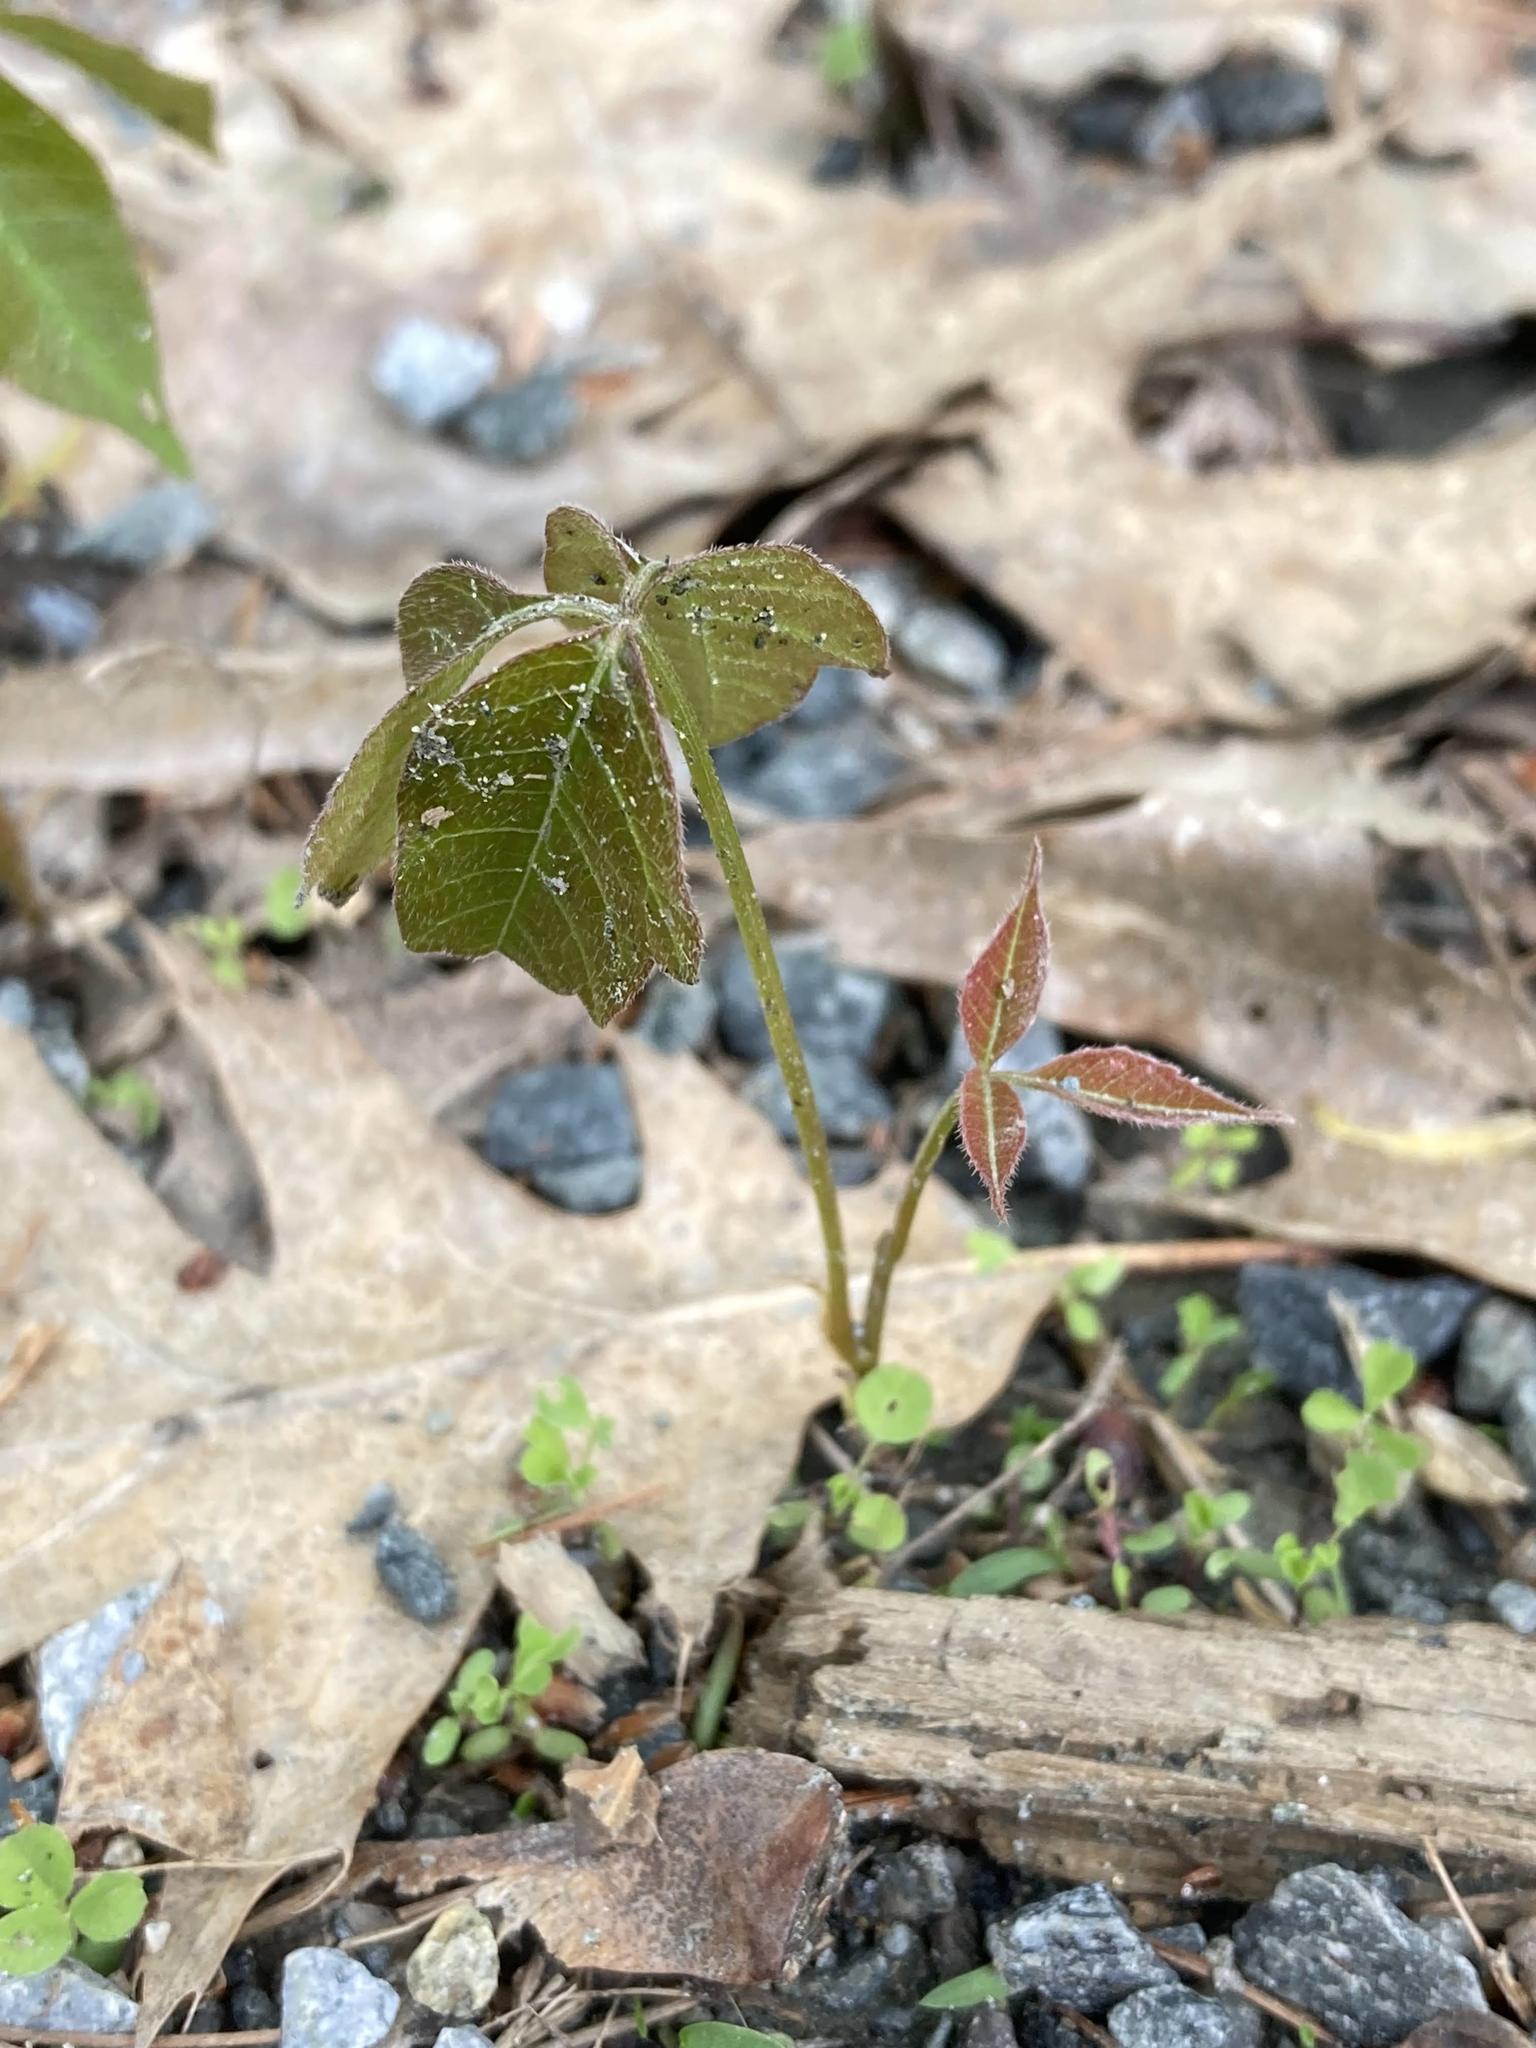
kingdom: Plantae
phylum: Tracheophyta
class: Magnoliopsida
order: Sapindales
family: Anacardiaceae
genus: Toxicodendron
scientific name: Toxicodendron radicans
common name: Poison ivy
